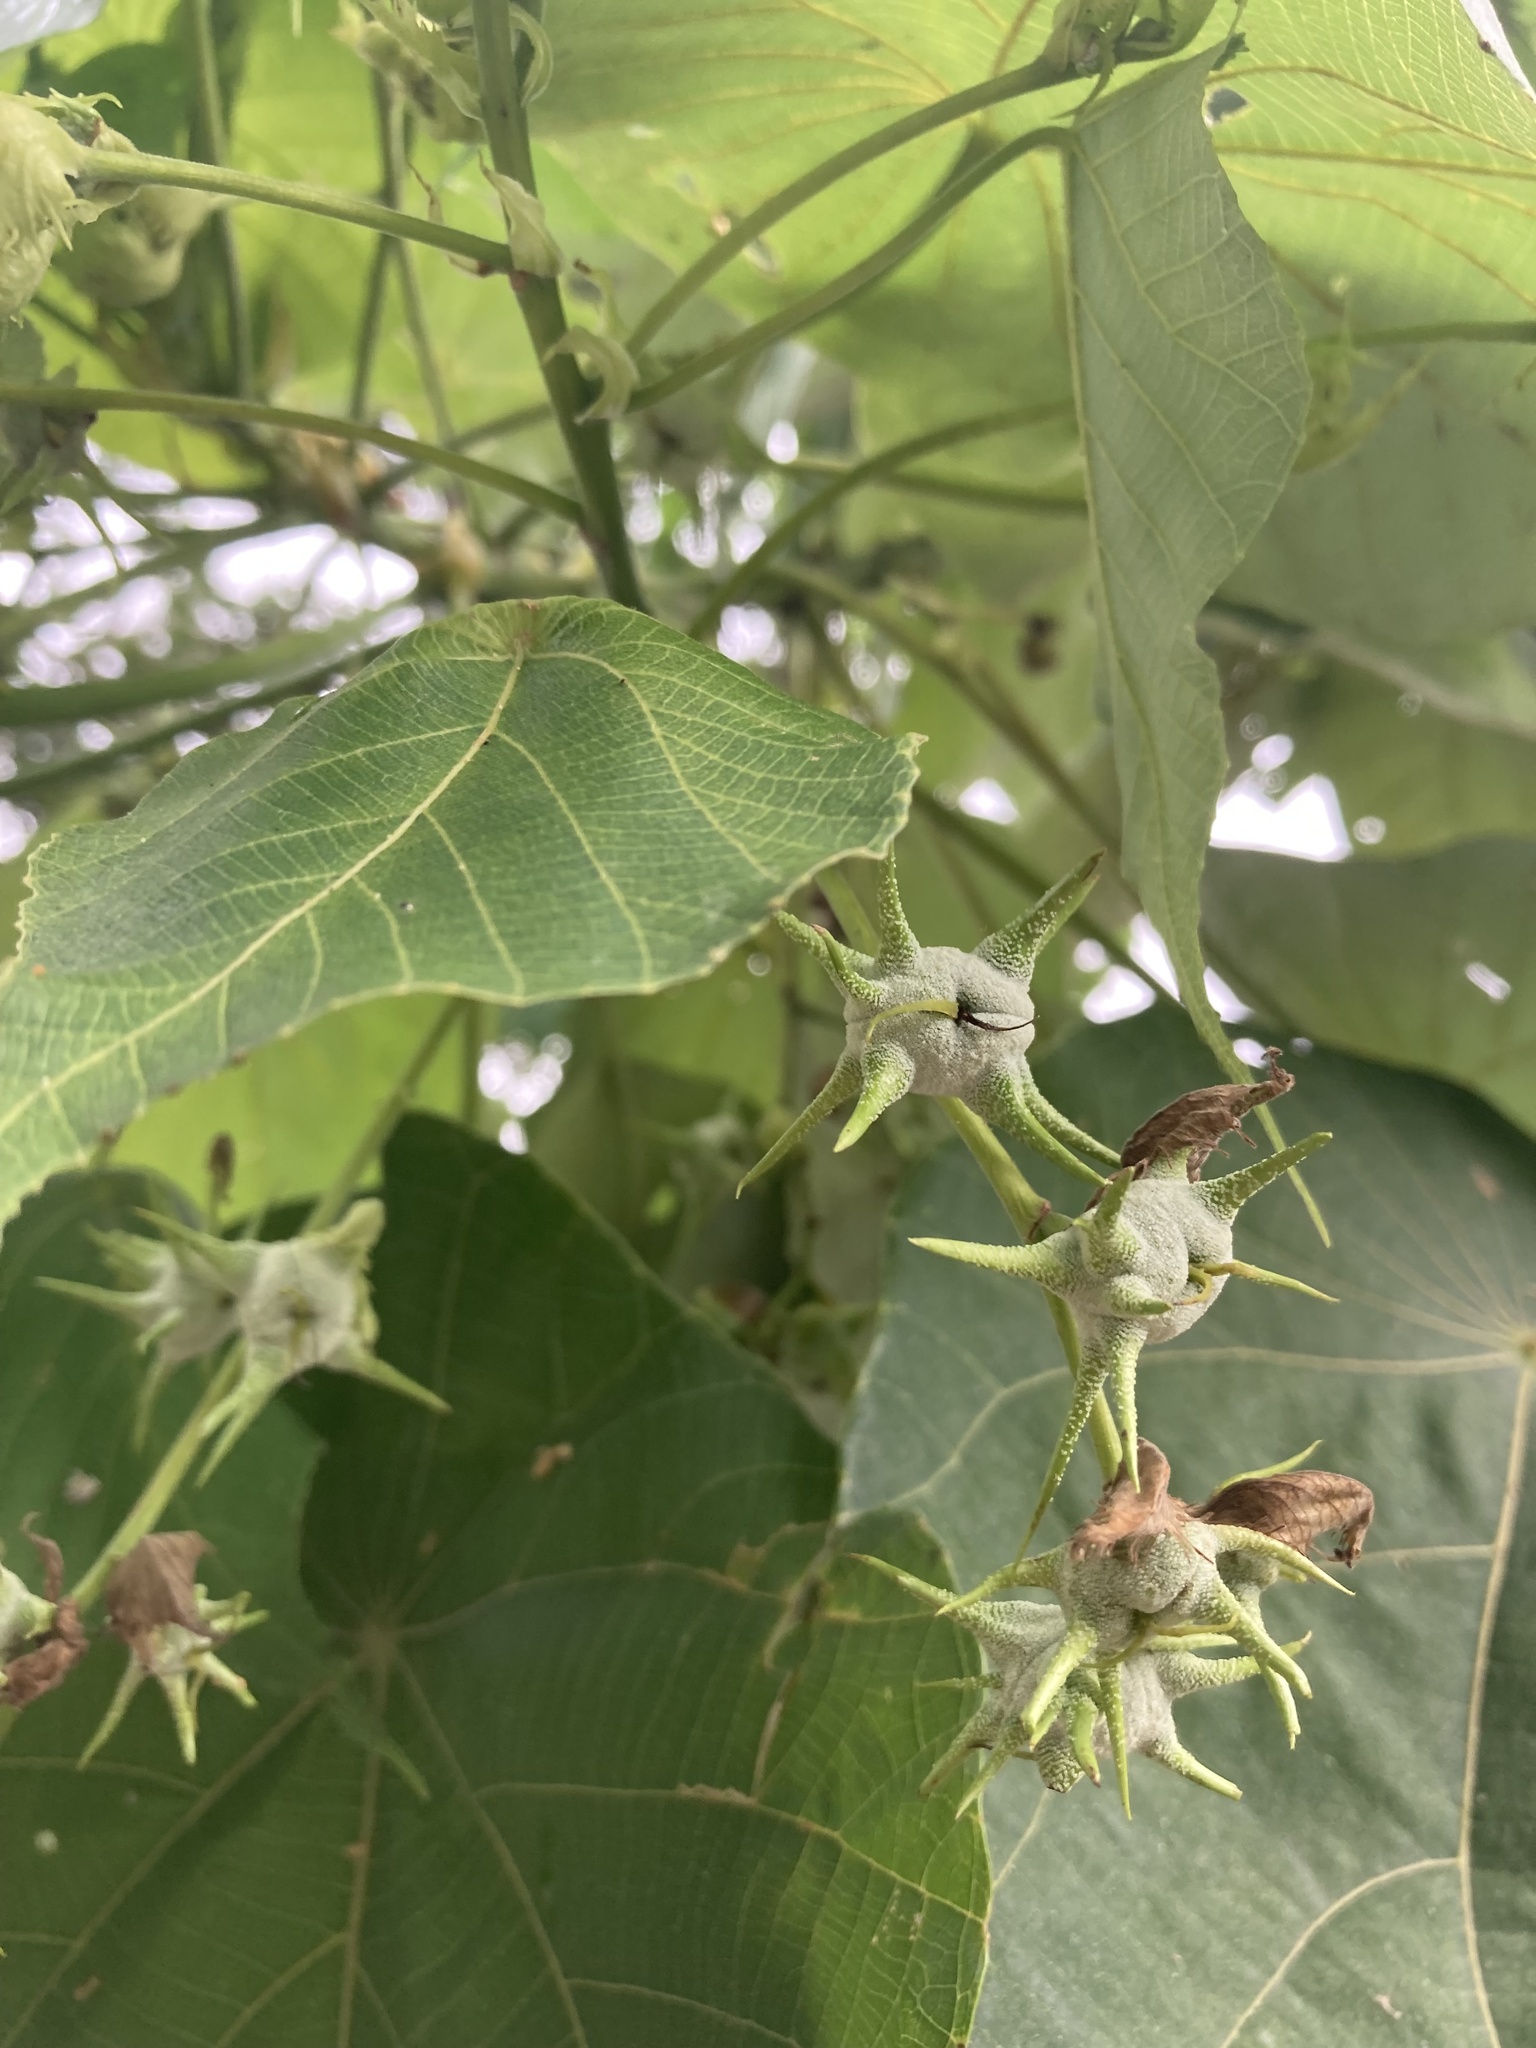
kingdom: Plantae
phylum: Tracheophyta
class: Magnoliopsida
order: Malpighiales
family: Euphorbiaceae
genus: Macaranga
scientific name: Macaranga tanarius
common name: Parasol leaf tree
